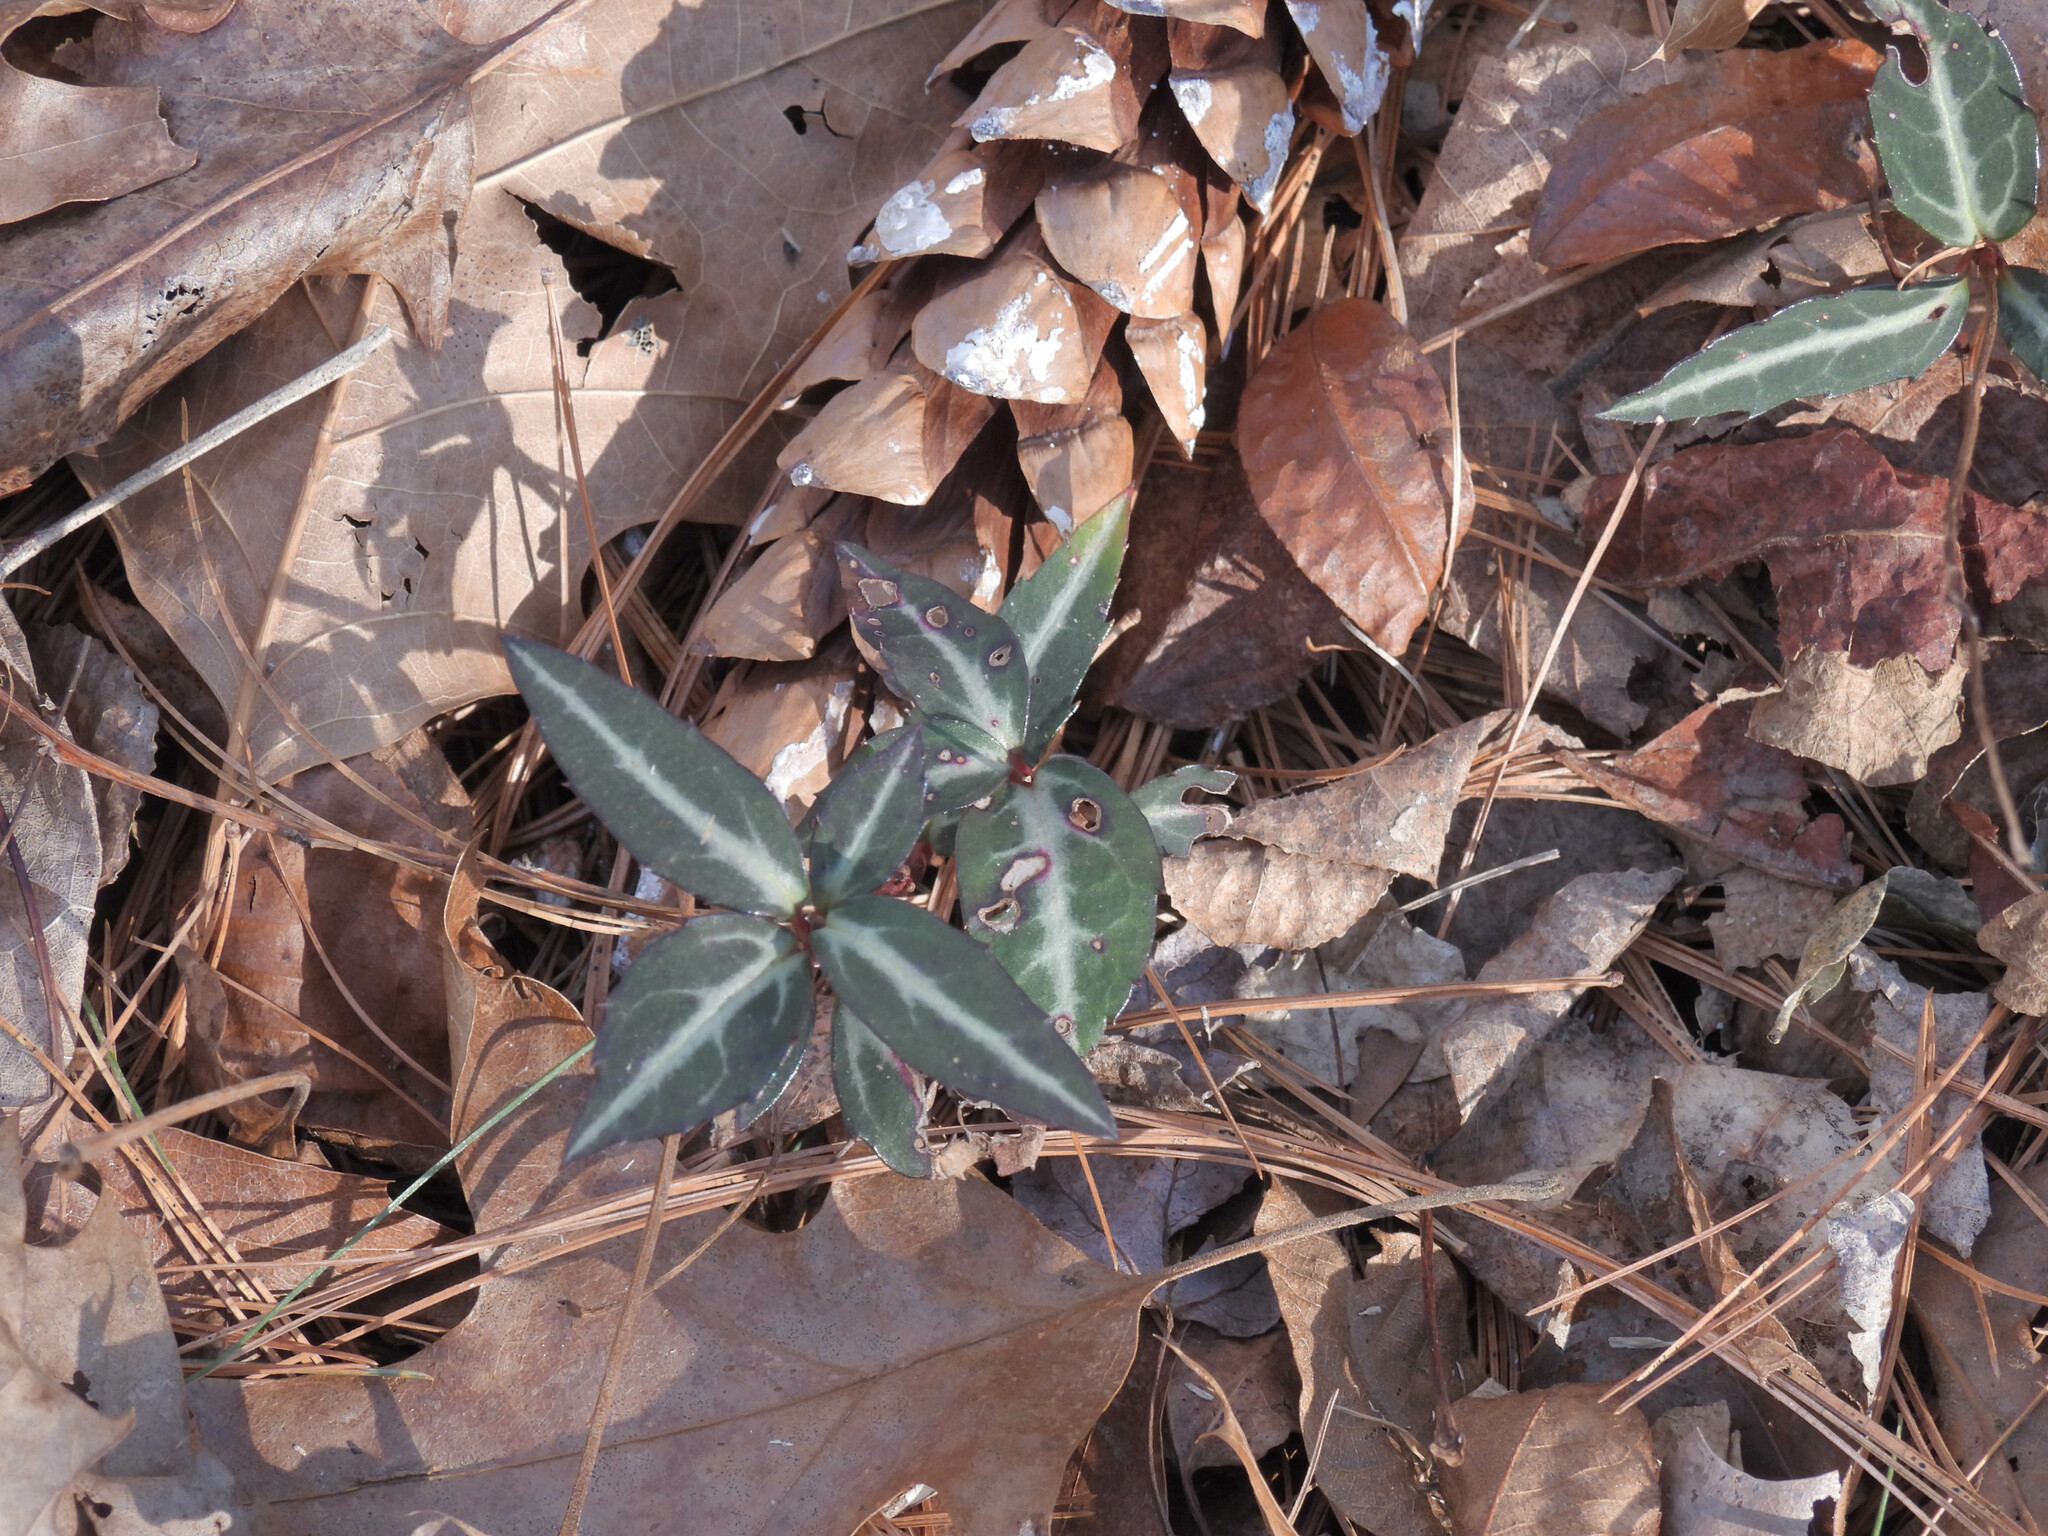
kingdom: Plantae
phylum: Tracheophyta
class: Magnoliopsida
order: Ericales
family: Ericaceae
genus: Chimaphila
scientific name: Chimaphila maculata
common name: Spotted pipsissewa
